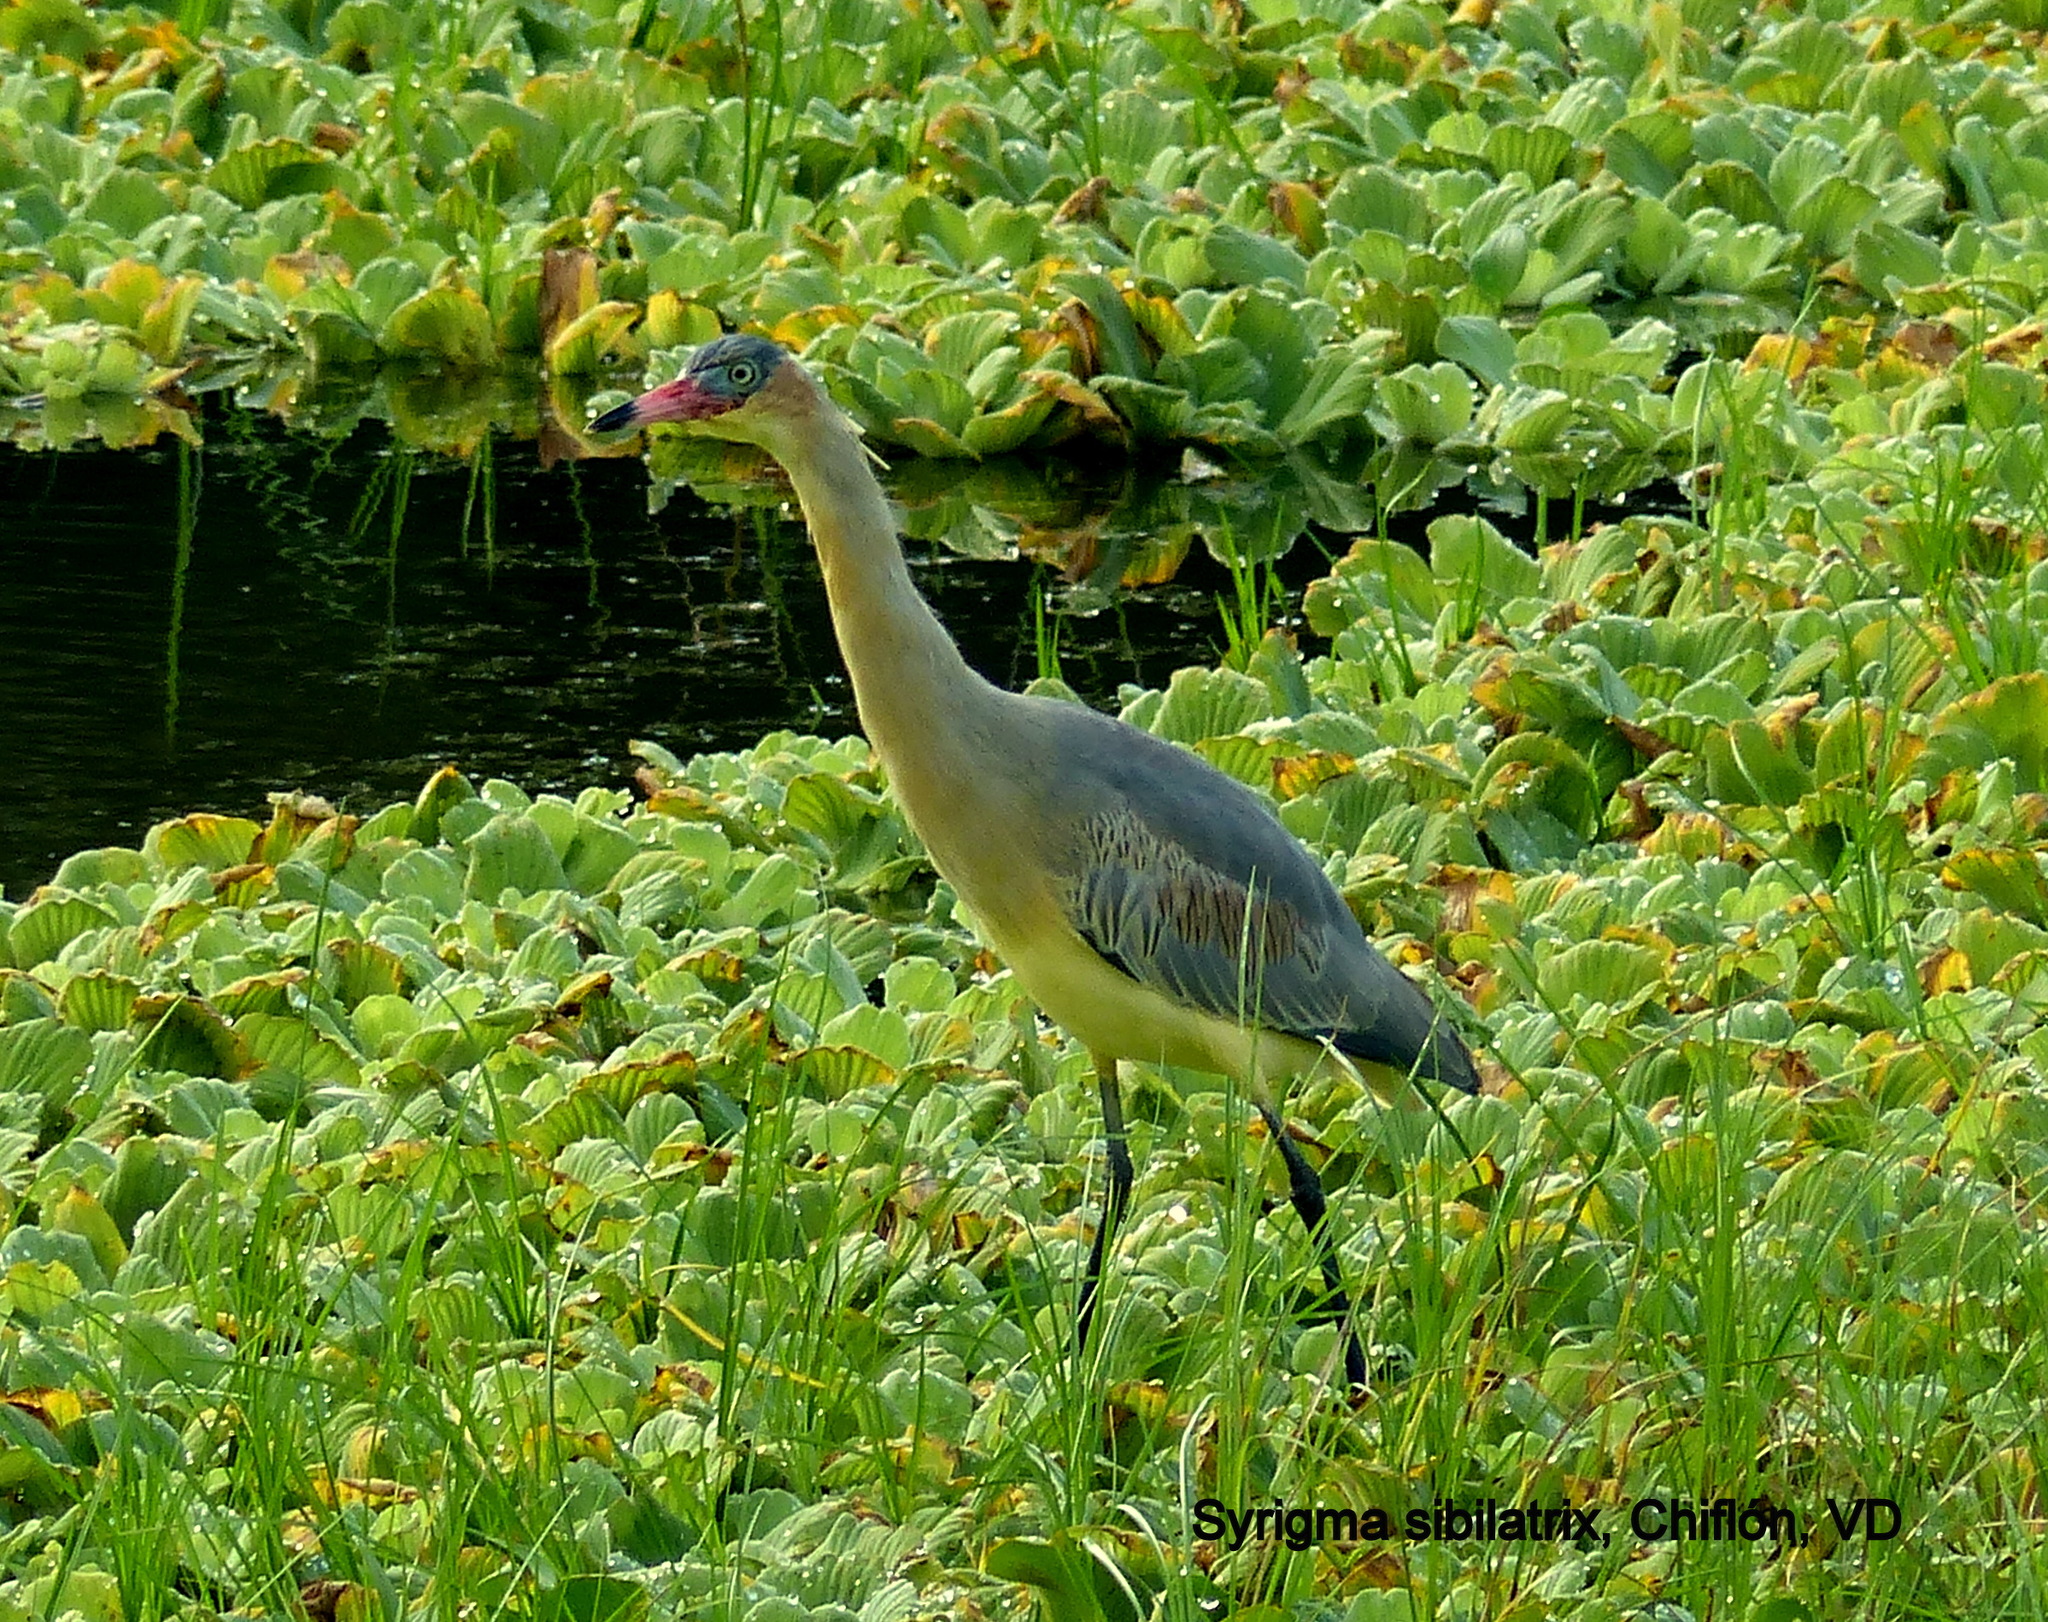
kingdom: Animalia
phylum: Chordata
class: Aves
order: Pelecaniformes
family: Ardeidae
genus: Syrigma
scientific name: Syrigma sibilatrix
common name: Whistling heron
